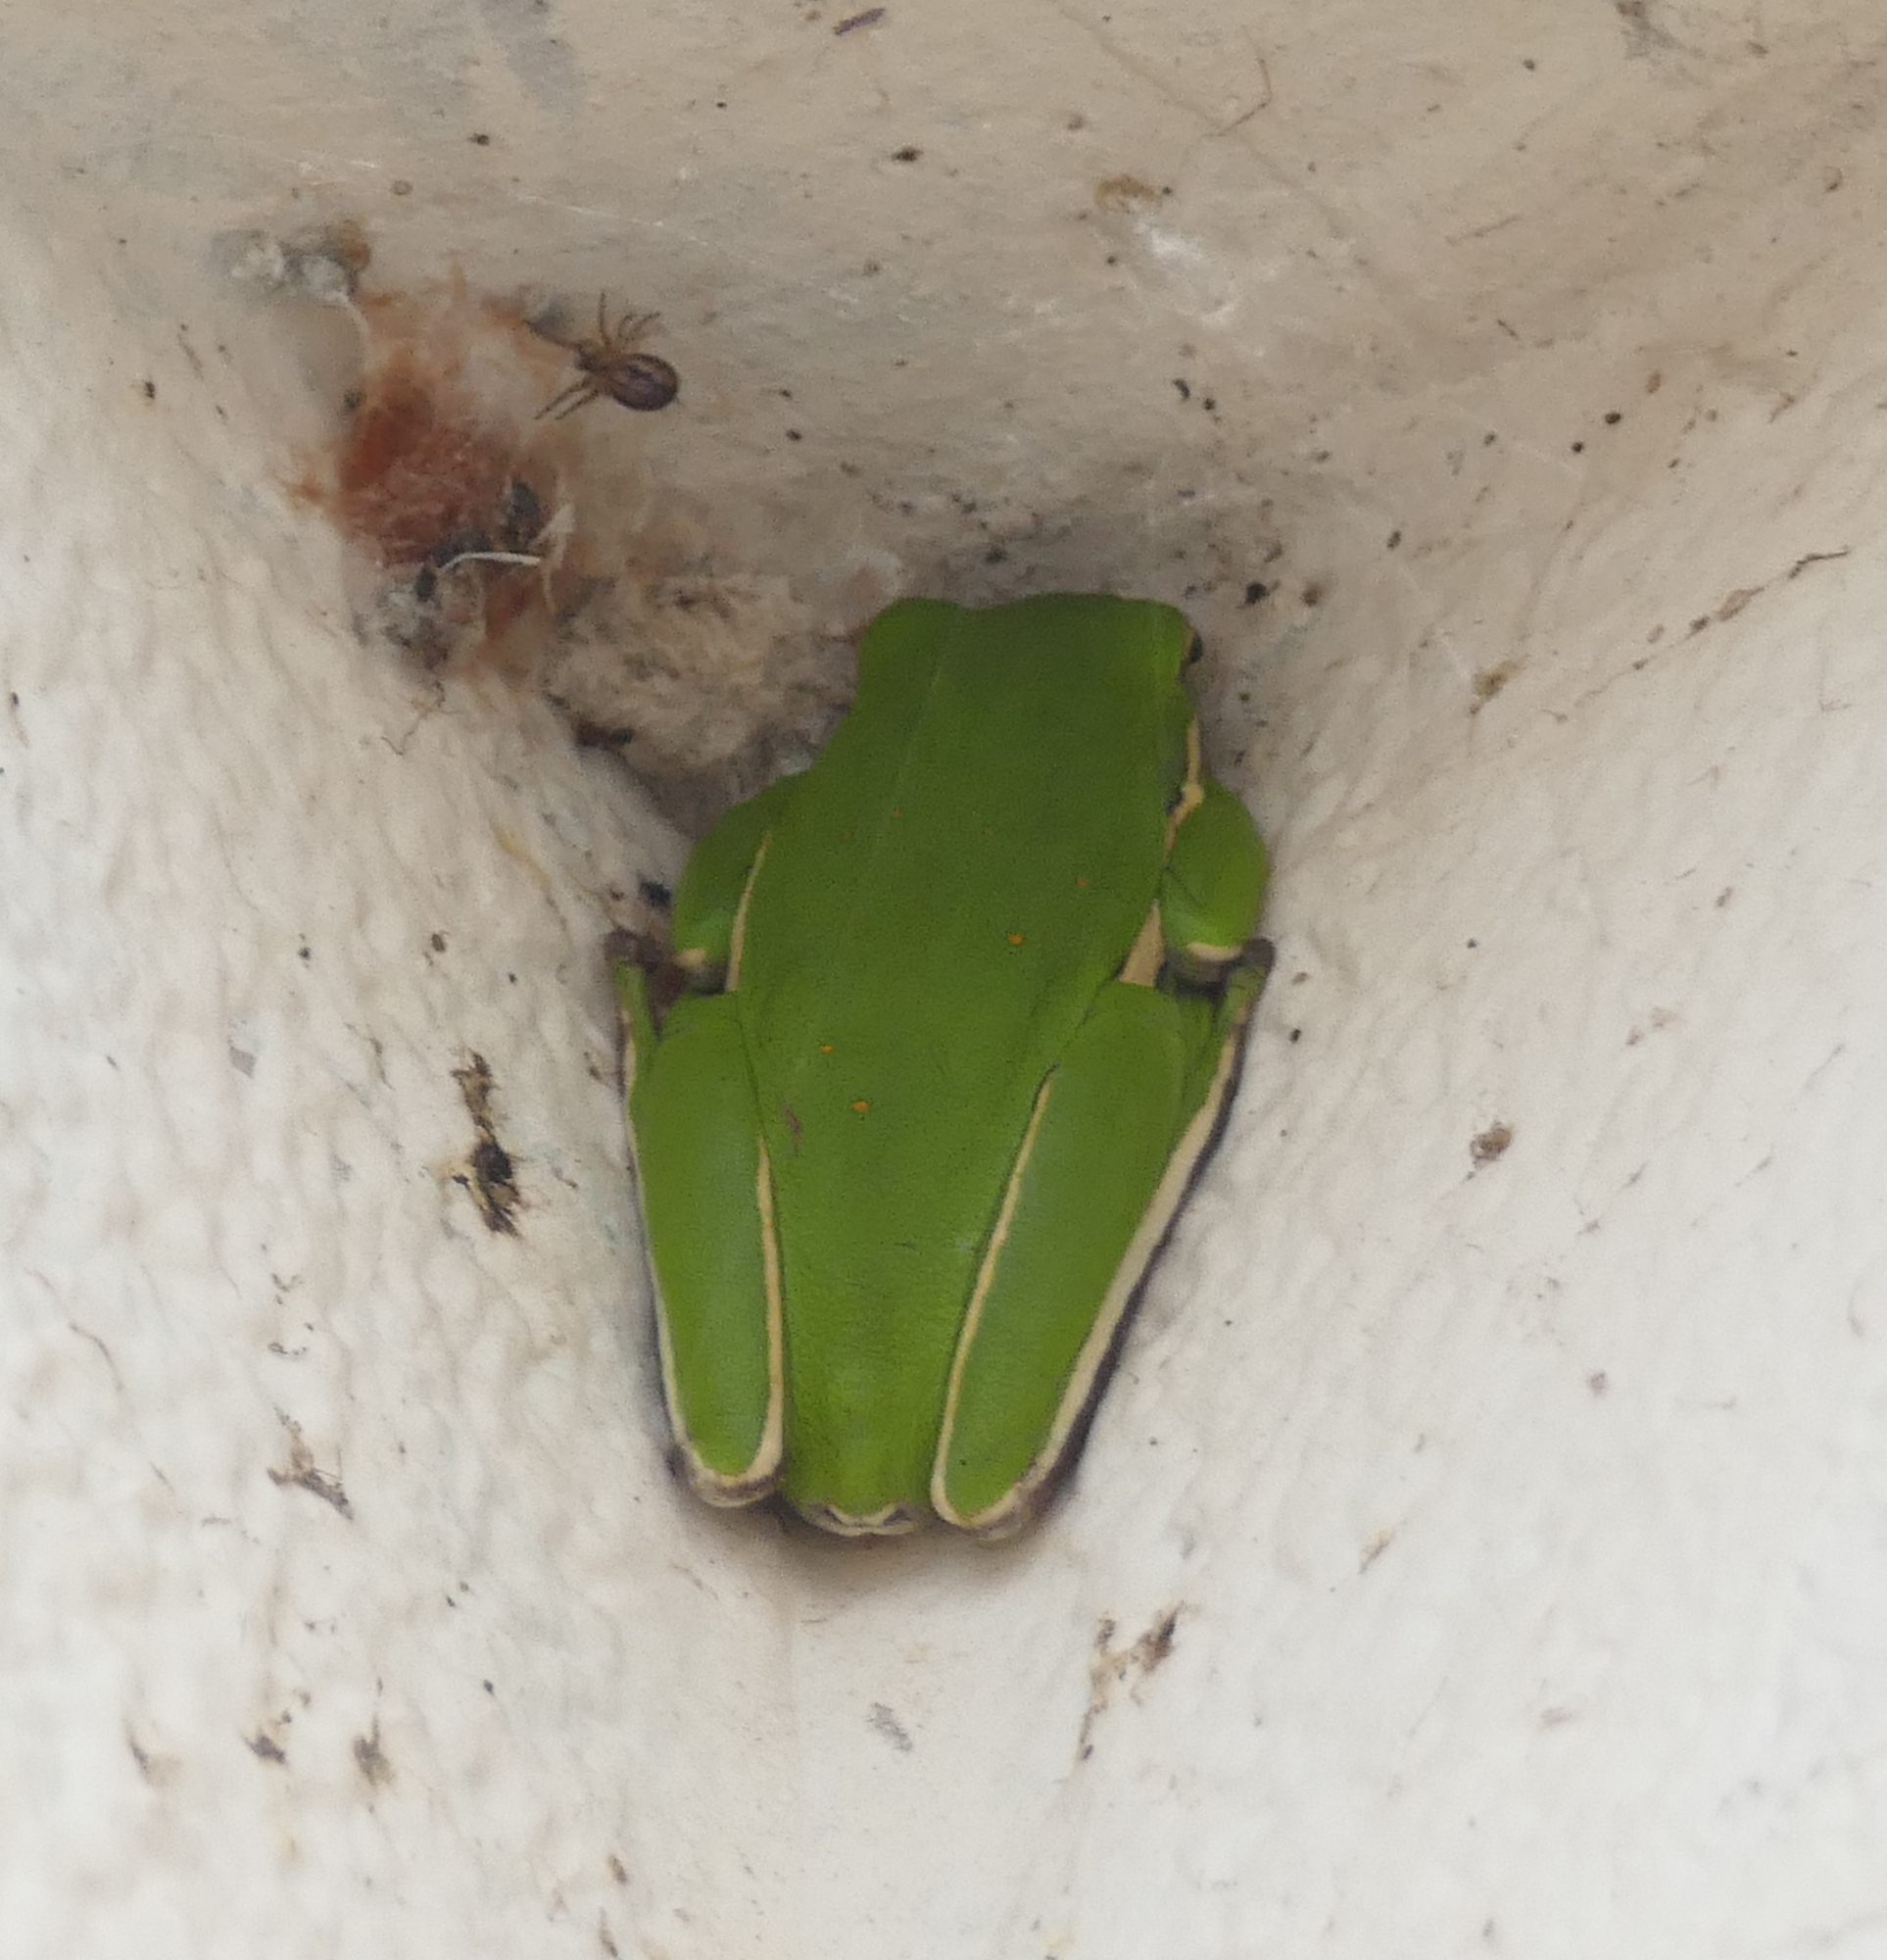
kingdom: Animalia
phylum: Chordata
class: Amphibia
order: Anura
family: Hylidae
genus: Dryophytes
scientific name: Dryophytes cinereus
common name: Green treefrog
